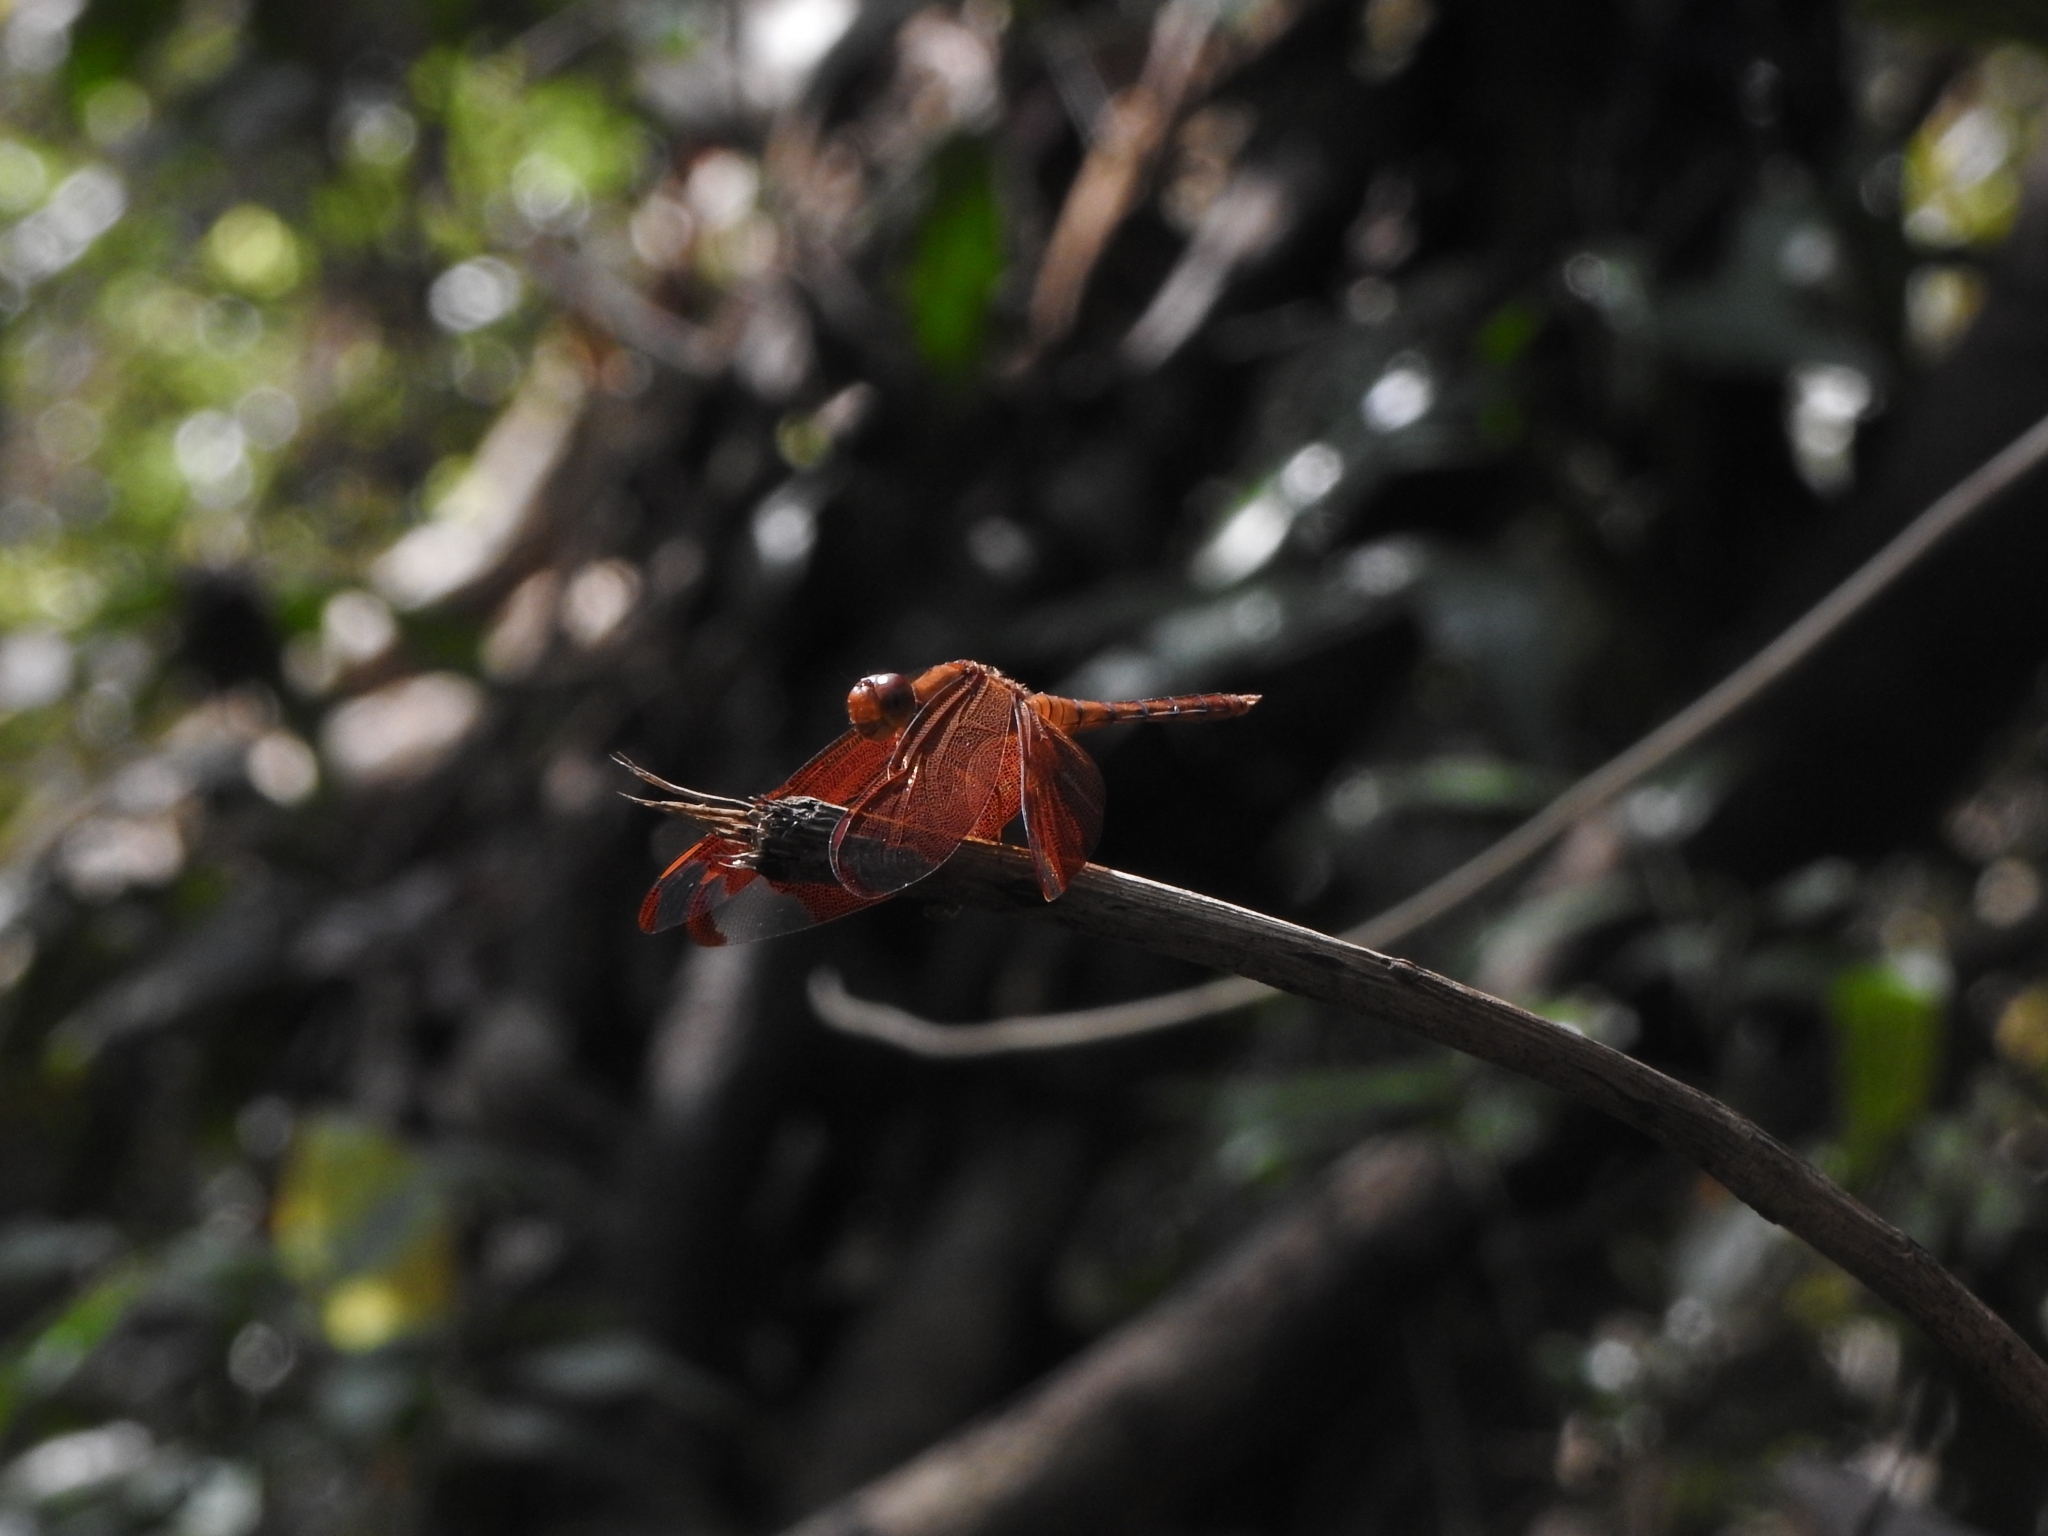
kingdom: Animalia
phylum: Arthropoda
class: Insecta
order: Odonata
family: Libellulidae
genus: Neurothemis
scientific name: Neurothemis fulvia
